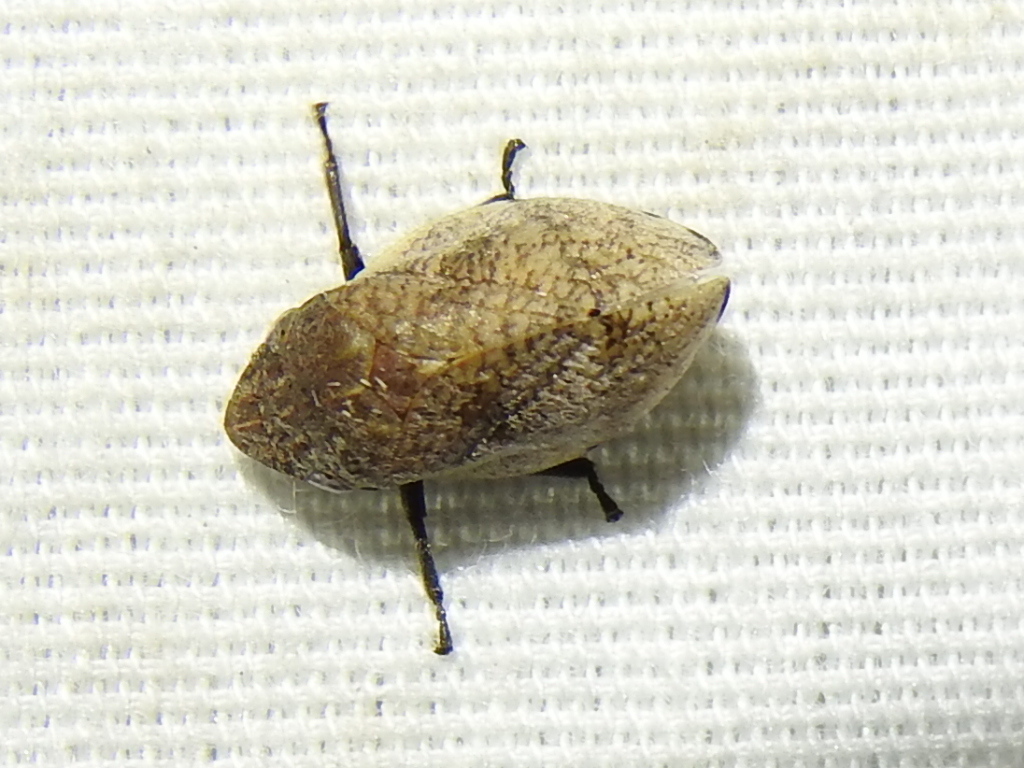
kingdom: Animalia
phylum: Arthropoda
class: Insecta
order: Hemiptera
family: Aphrophoridae
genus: Lepyronia
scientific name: Lepyronia gibbosa
